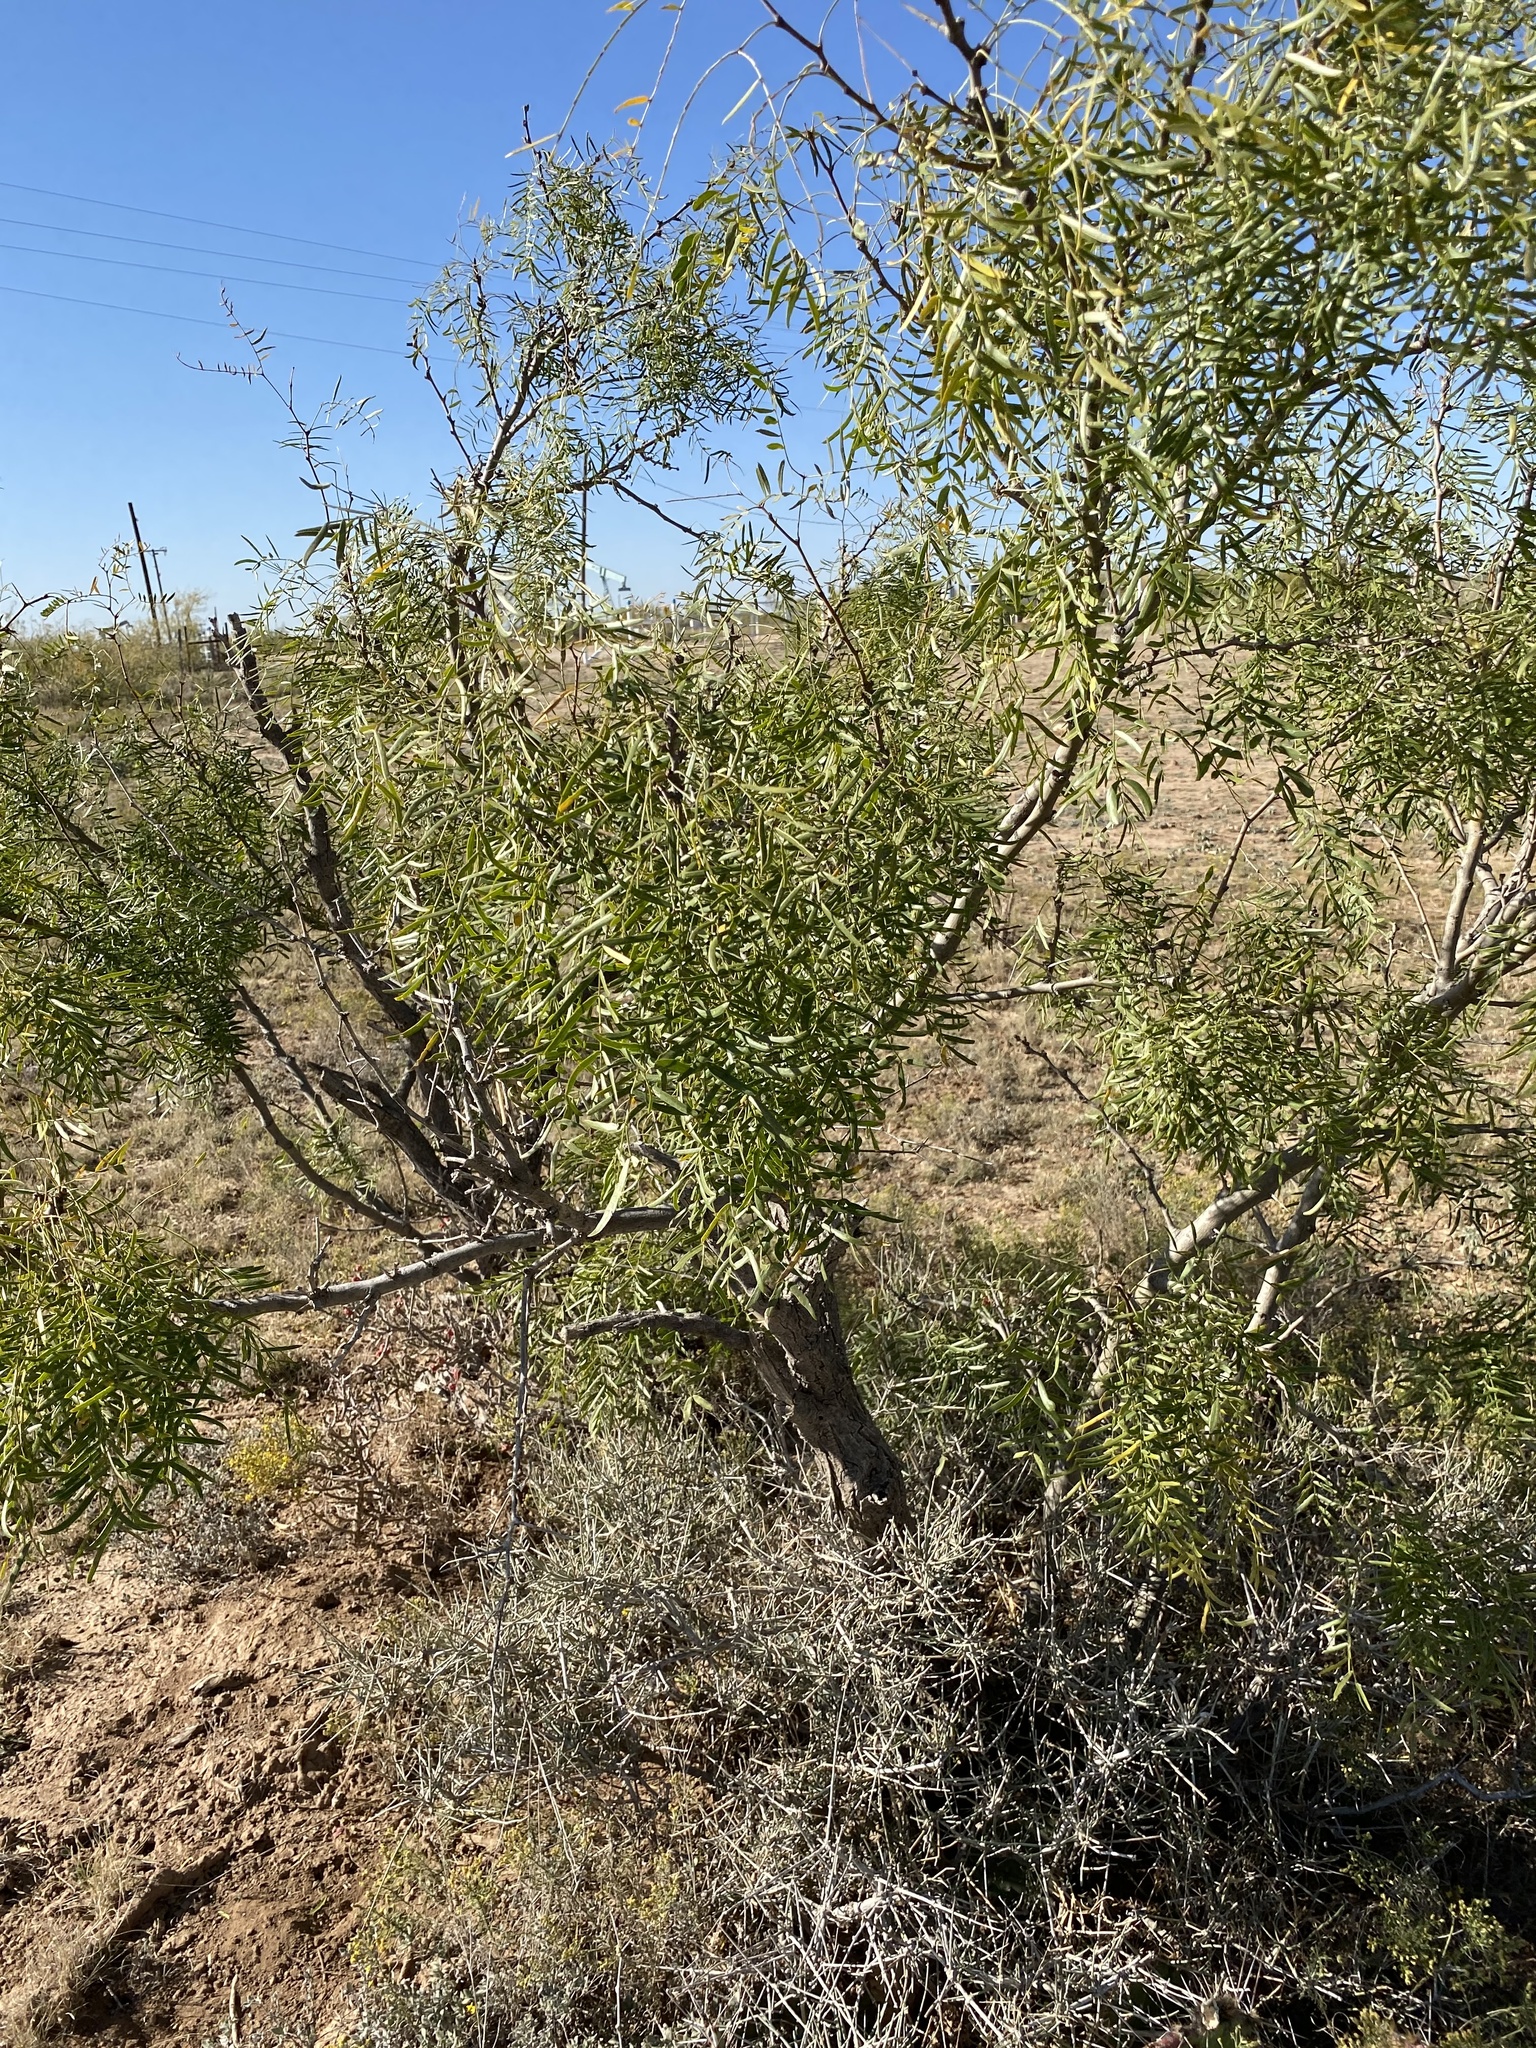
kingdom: Plantae
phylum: Tracheophyta
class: Magnoliopsida
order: Fabales
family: Fabaceae
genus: Prosopis
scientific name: Prosopis glandulosa
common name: Honey mesquite
